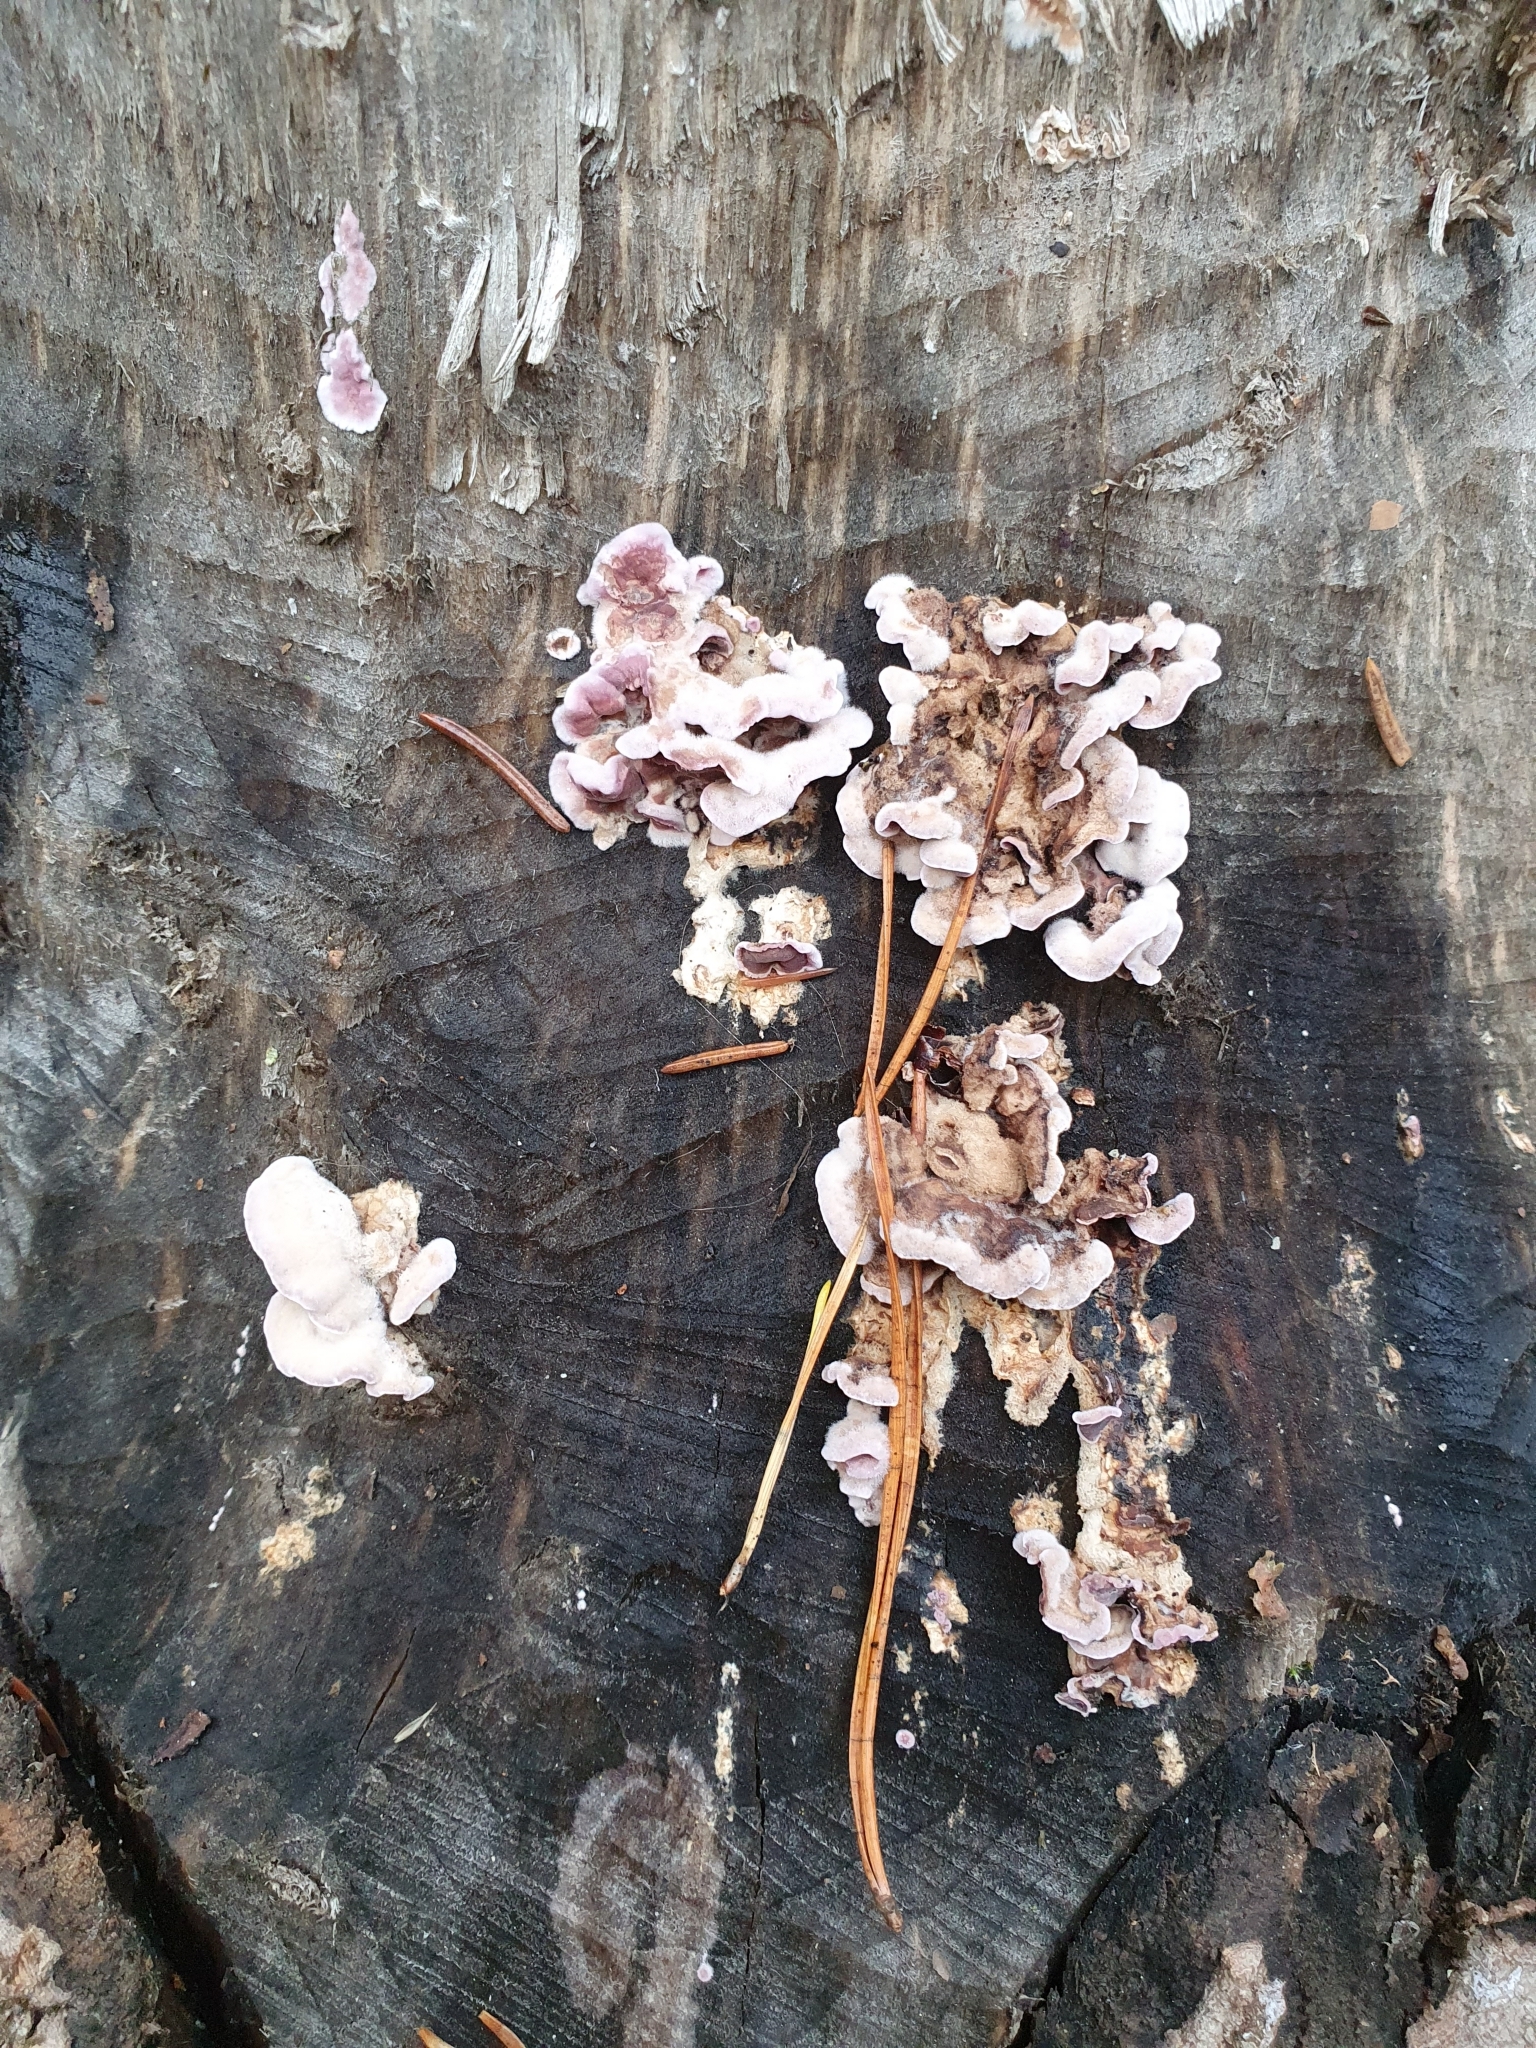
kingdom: Fungi
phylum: Basidiomycota
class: Agaricomycetes
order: Agaricales
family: Cyphellaceae
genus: Chondrostereum
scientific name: Chondrostereum purpureum
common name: Silver leaf disease
